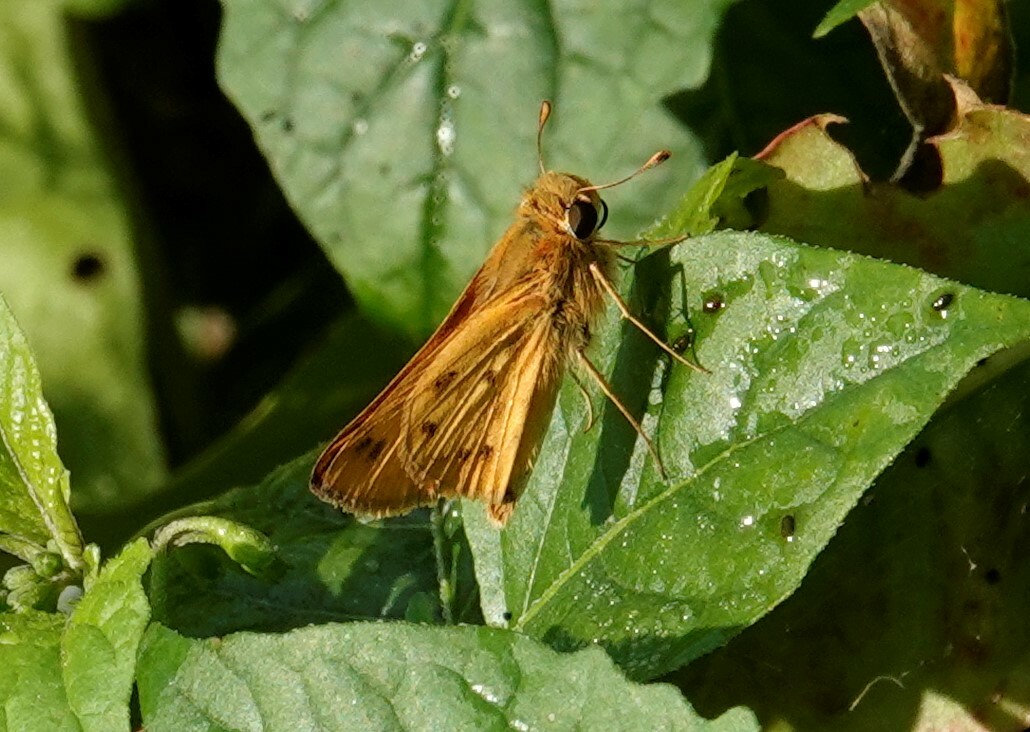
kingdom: Animalia
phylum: Arthropoda
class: Insecta
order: Lepidoptera
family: Hesperiidae
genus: Hylephila
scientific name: Hylephila phyleus
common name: Fiery skipper
